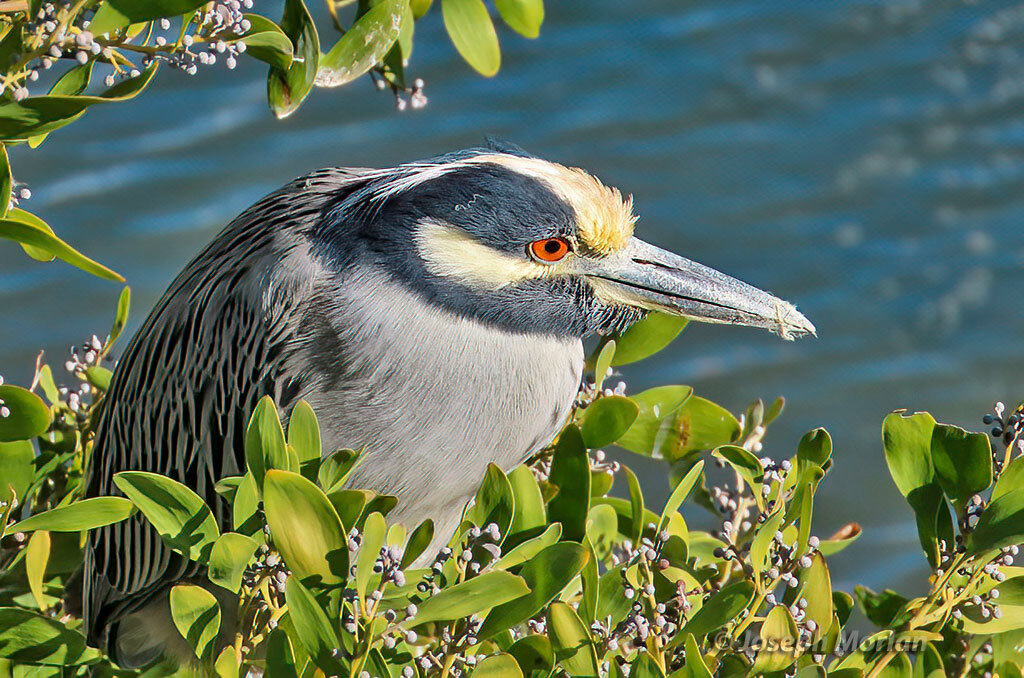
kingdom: Animalia
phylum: Chordata
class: Aves
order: Pelecaniformes
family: Ardeidae
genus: Nyctanassa
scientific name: Nyctanassa violacea
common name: Yellow-crowned night heron
